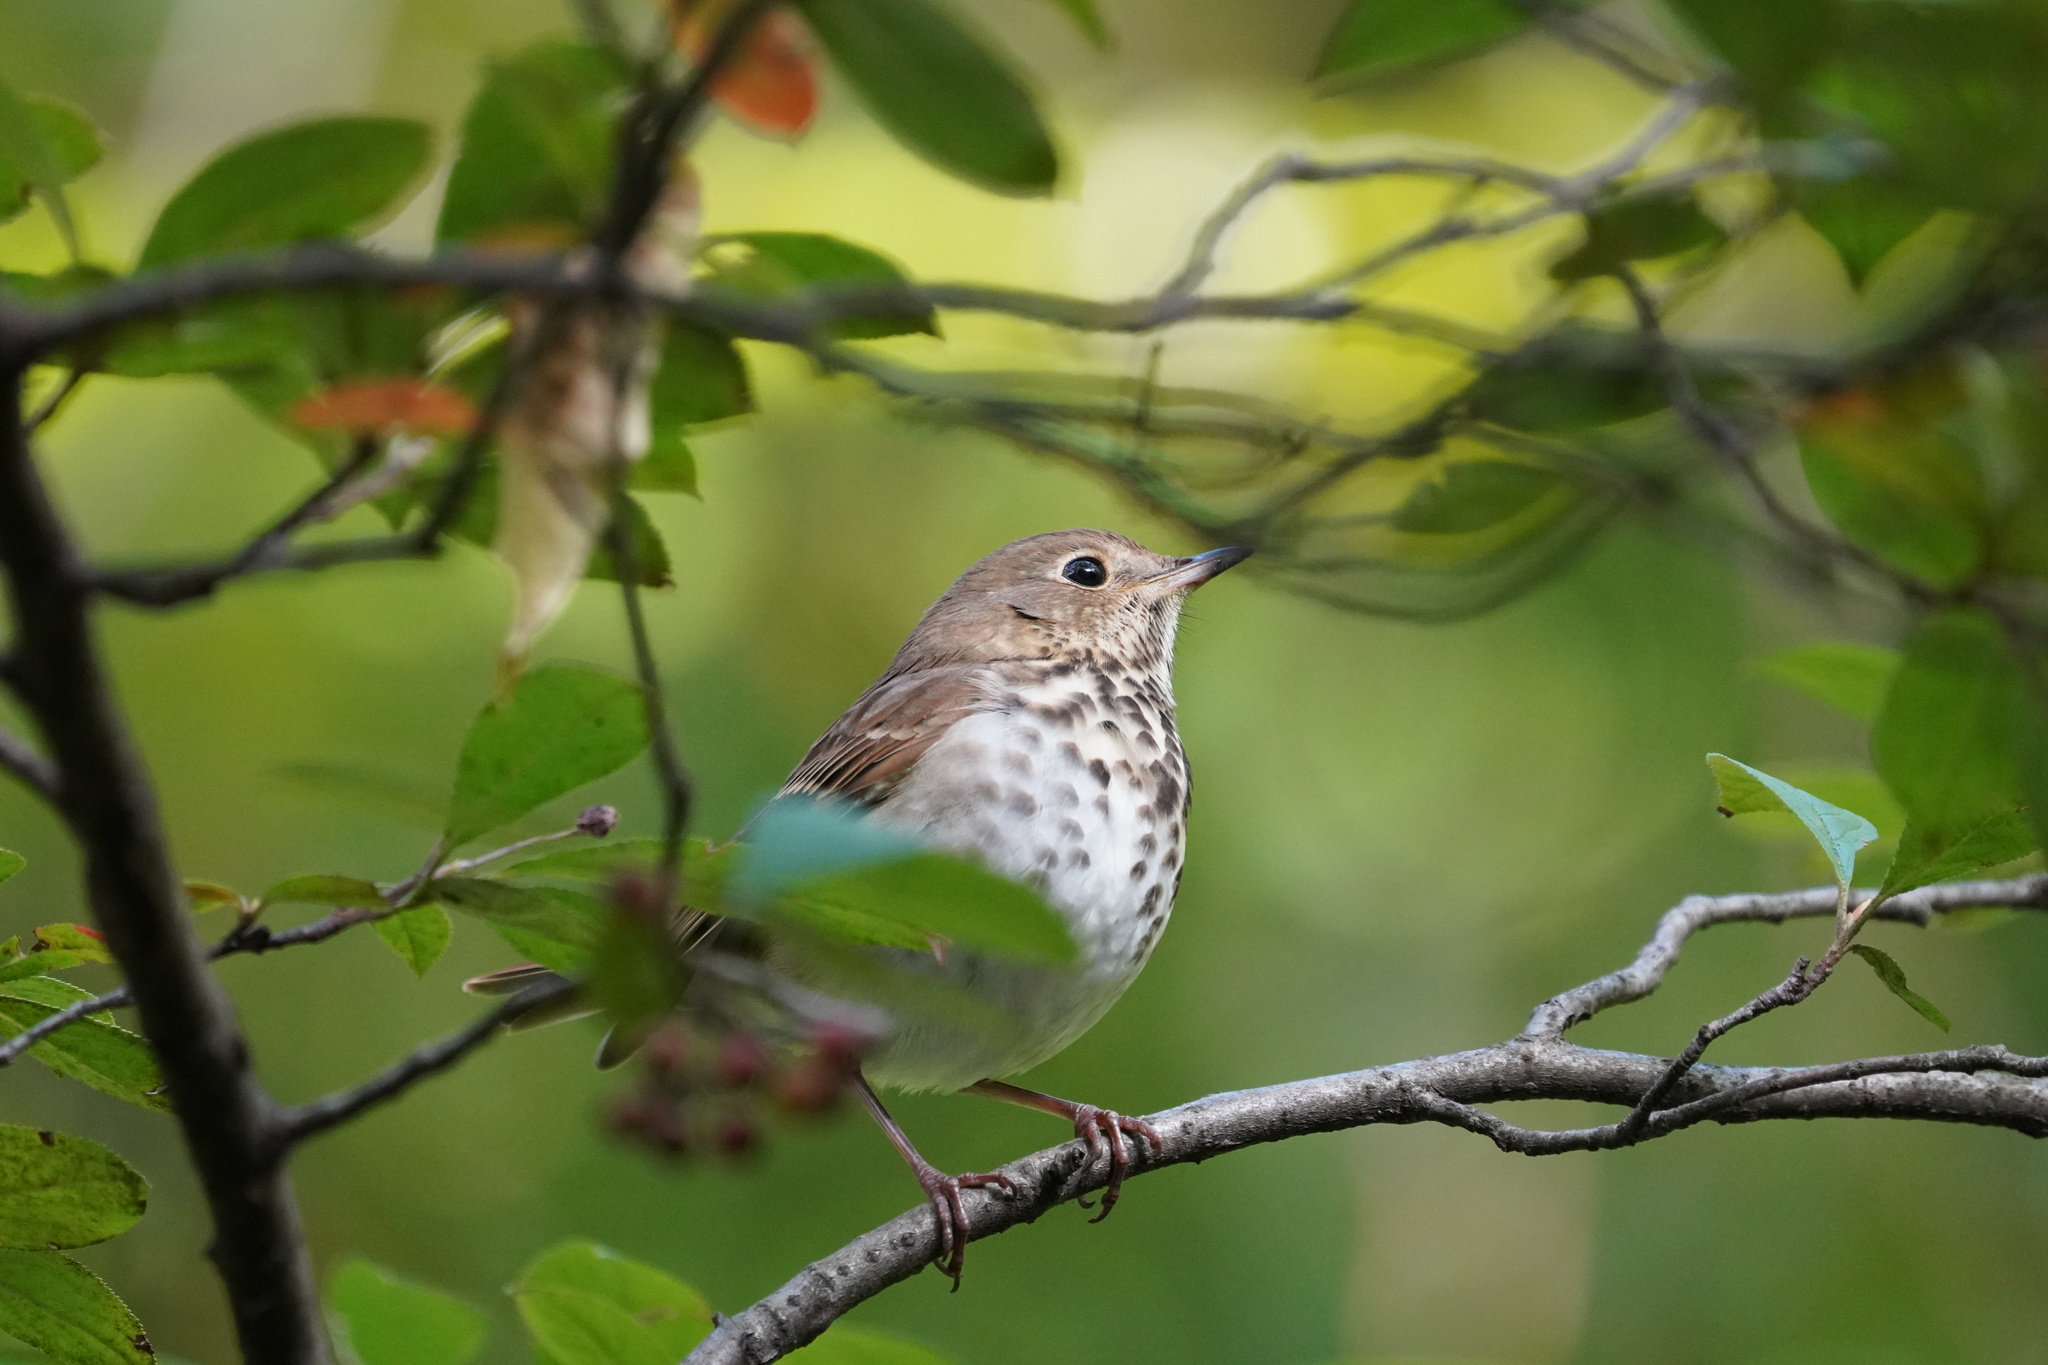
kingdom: Animalia
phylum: Chordata
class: Aves
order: Passeriformes
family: Turdidae
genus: Catharus
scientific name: Catharus guttatus
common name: Hermit thrush
